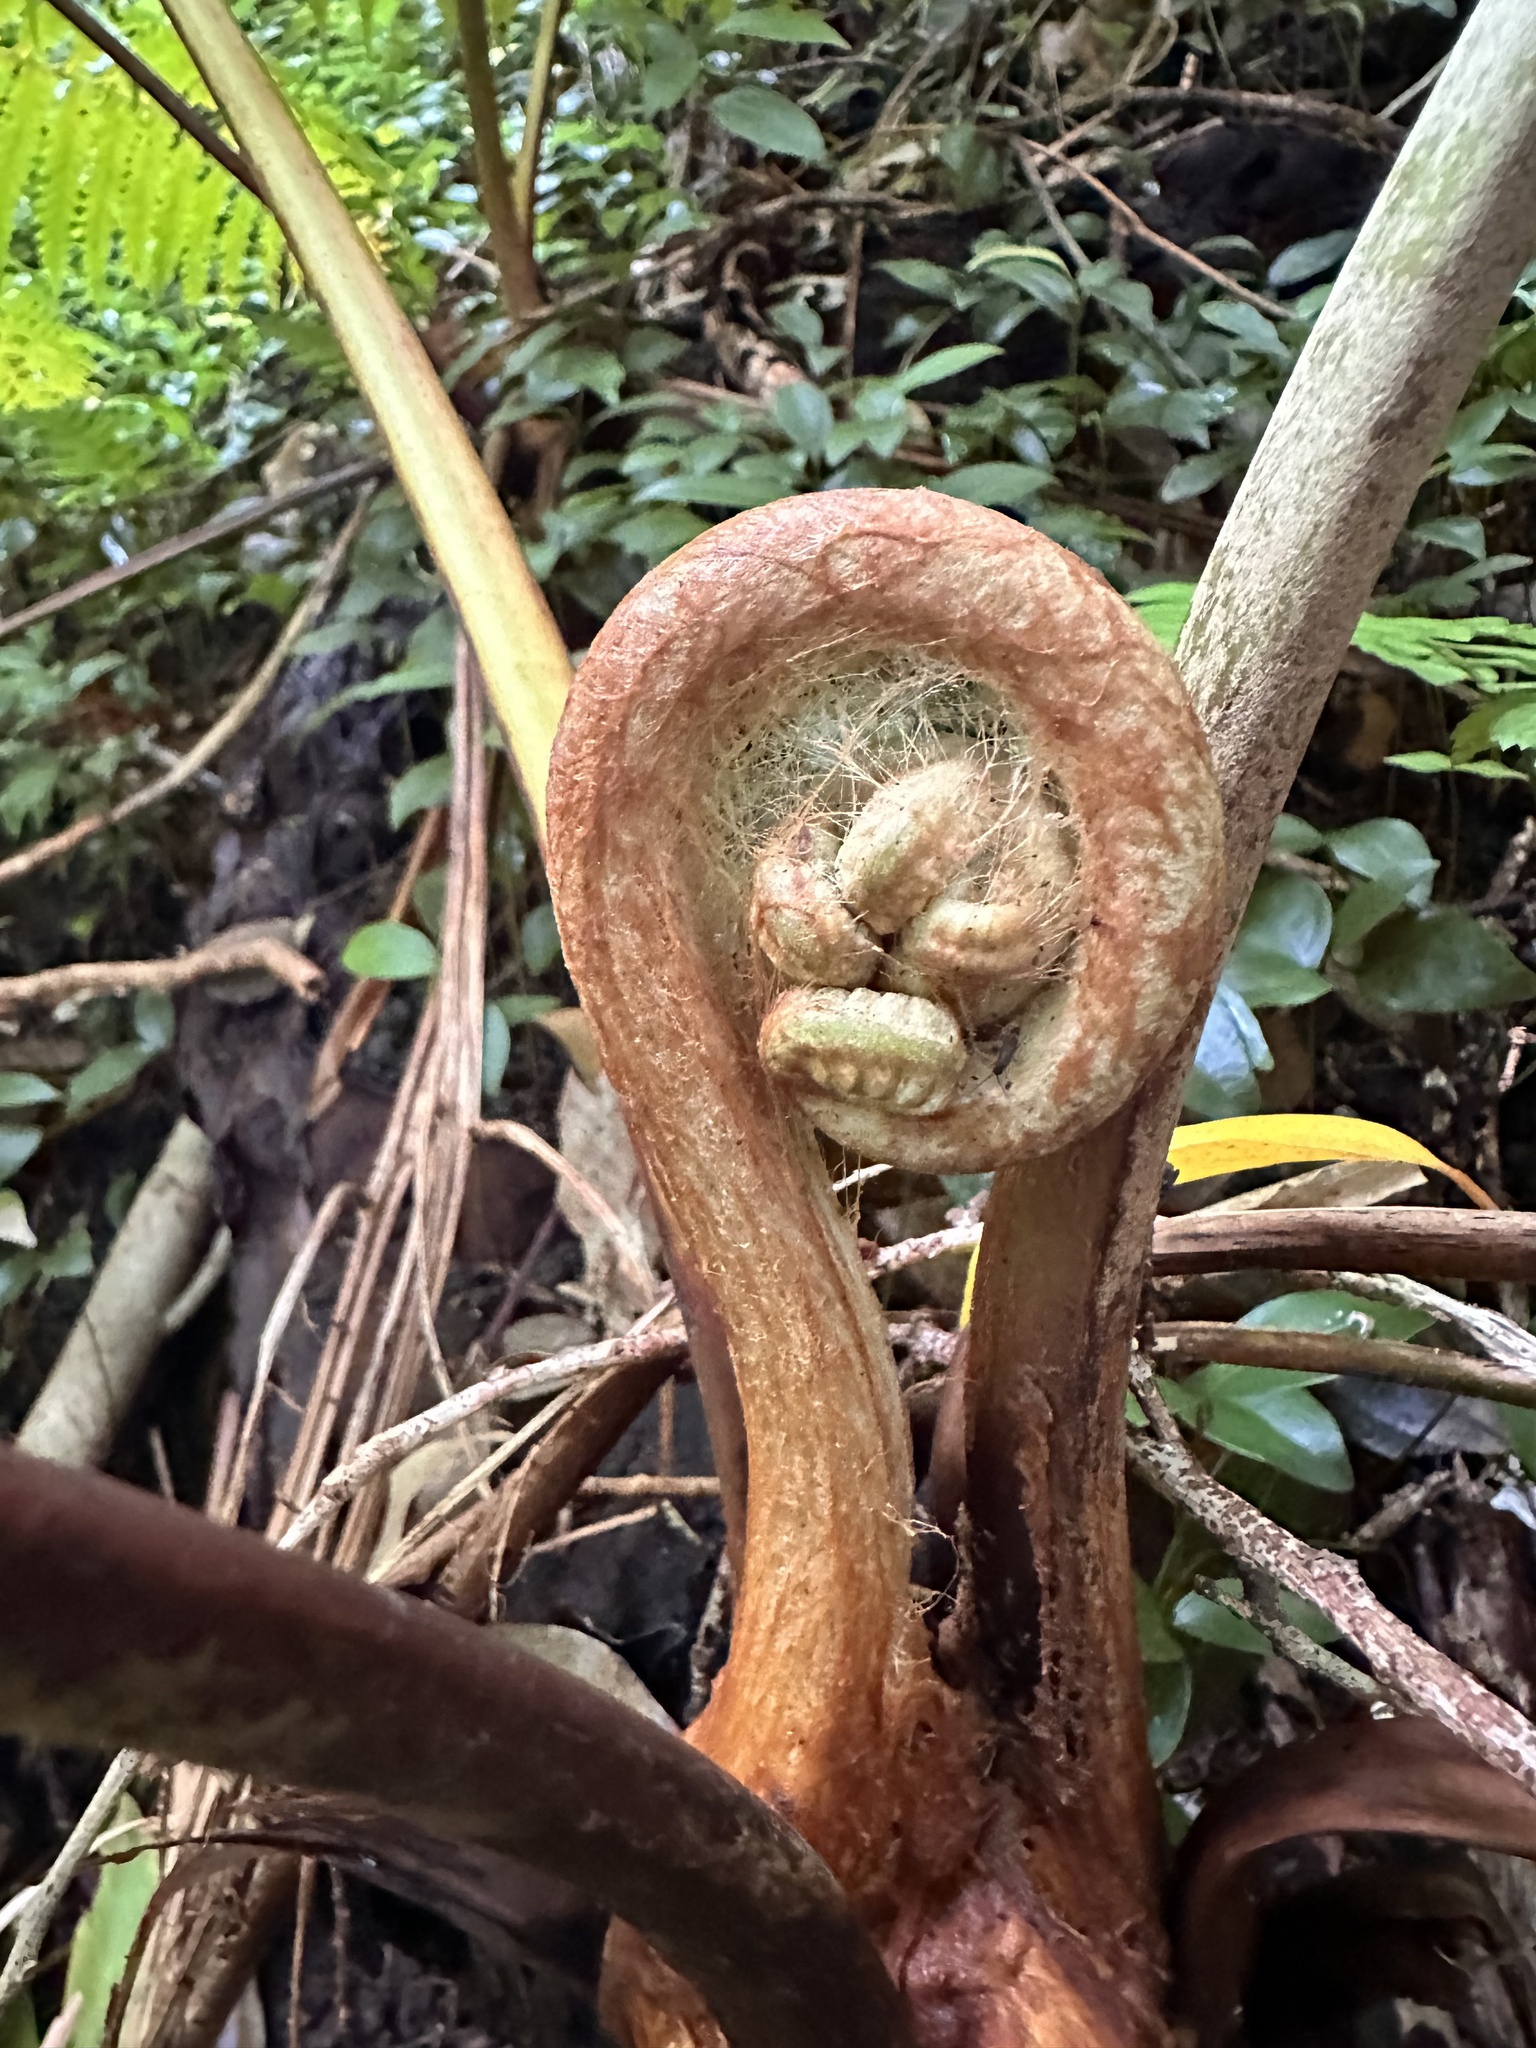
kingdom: Plantae
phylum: Tracheophyta
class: Polypodiopsida
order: Cyatheales
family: Cibotiaceae
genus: Cibotium
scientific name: Cibotium chamissoi
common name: Hawaiian tree fern
